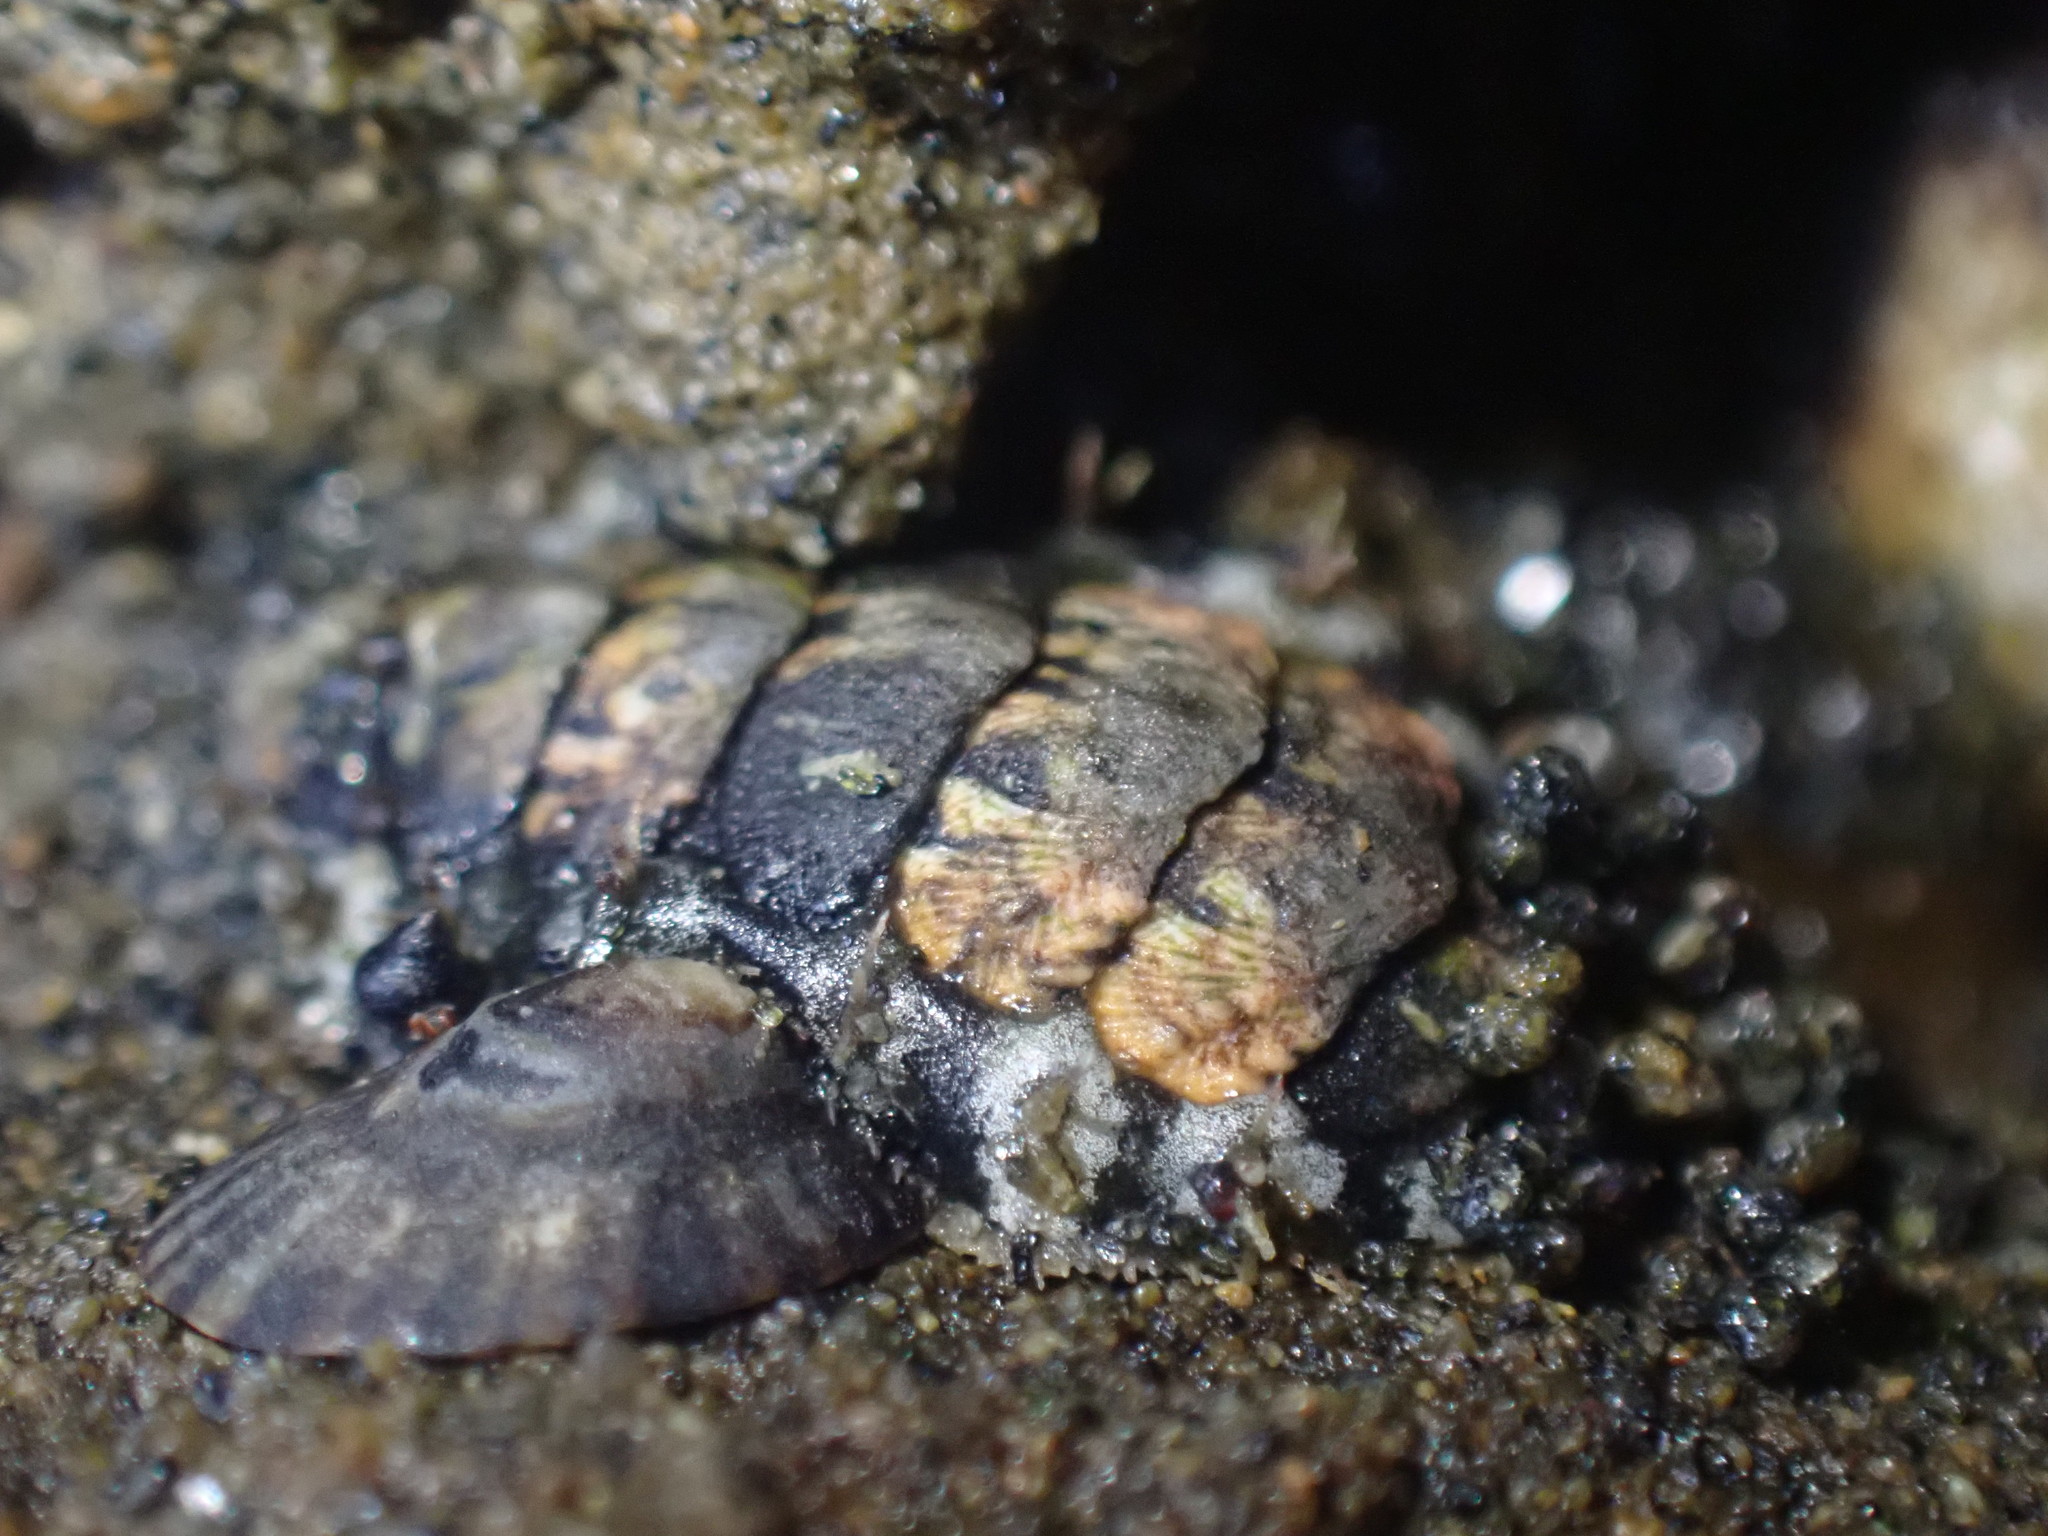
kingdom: Animalia
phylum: Mollusca
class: Polyplacophora
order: Chitonida
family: Mopaliidae
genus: Plaxiphora
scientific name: Plaxiphora caelata
